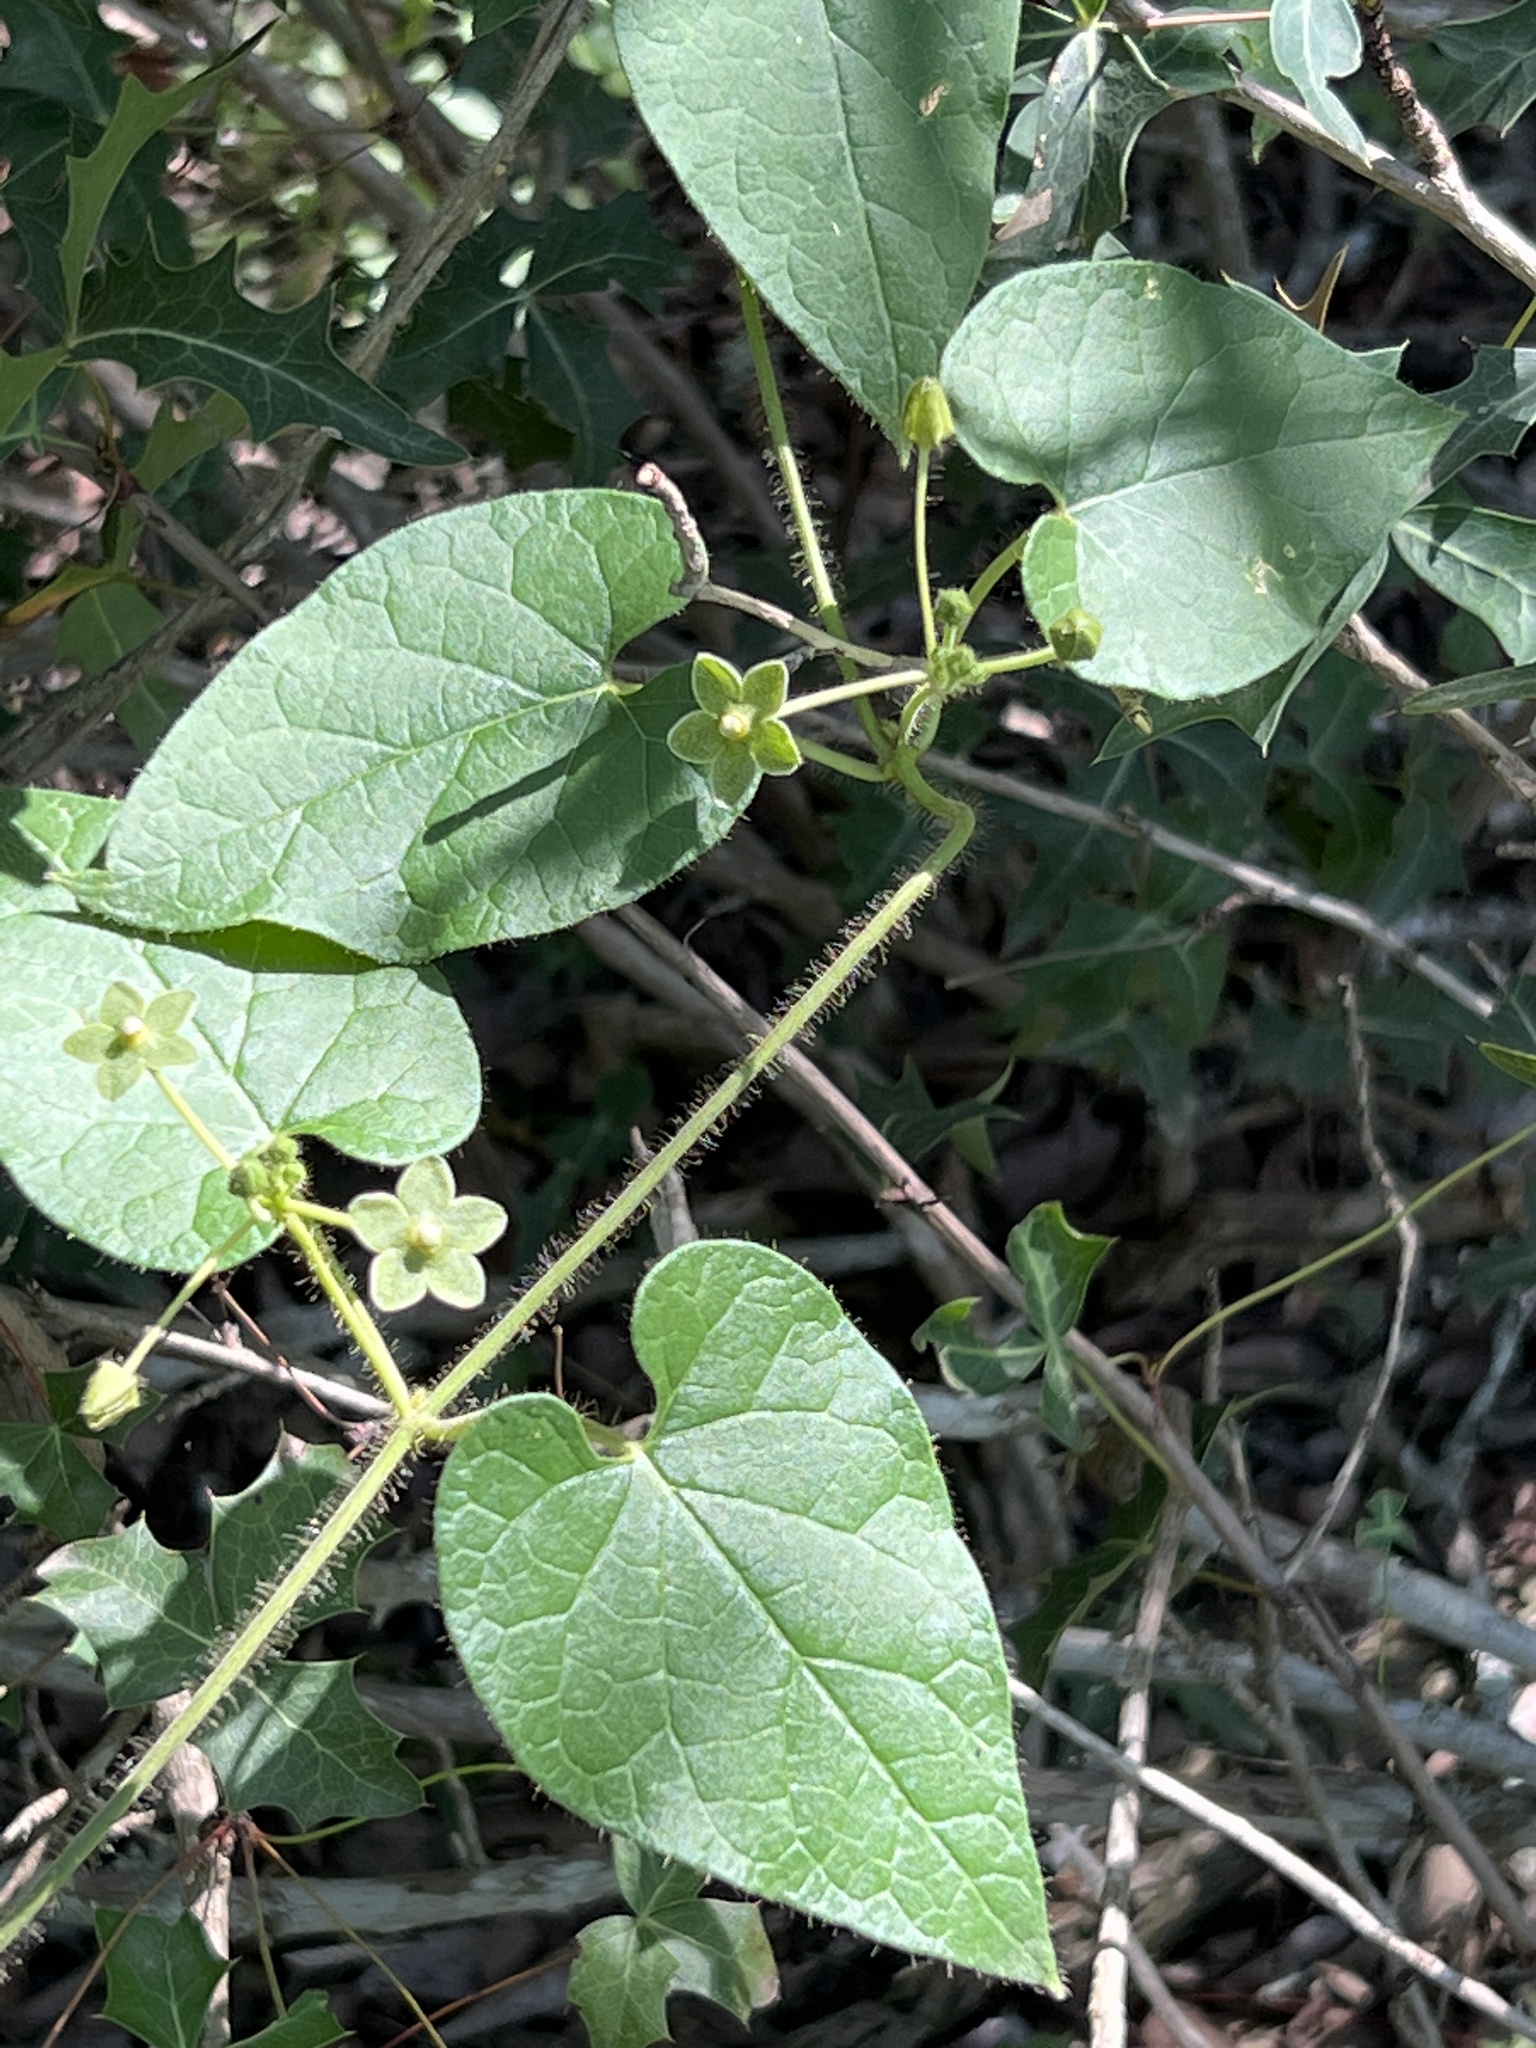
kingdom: Plantae
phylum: Tracheophyta
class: Magnoliopsida
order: Gentianales
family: Apocynaceae
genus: Dictyanthus
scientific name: Dictyanthus reticulatus
